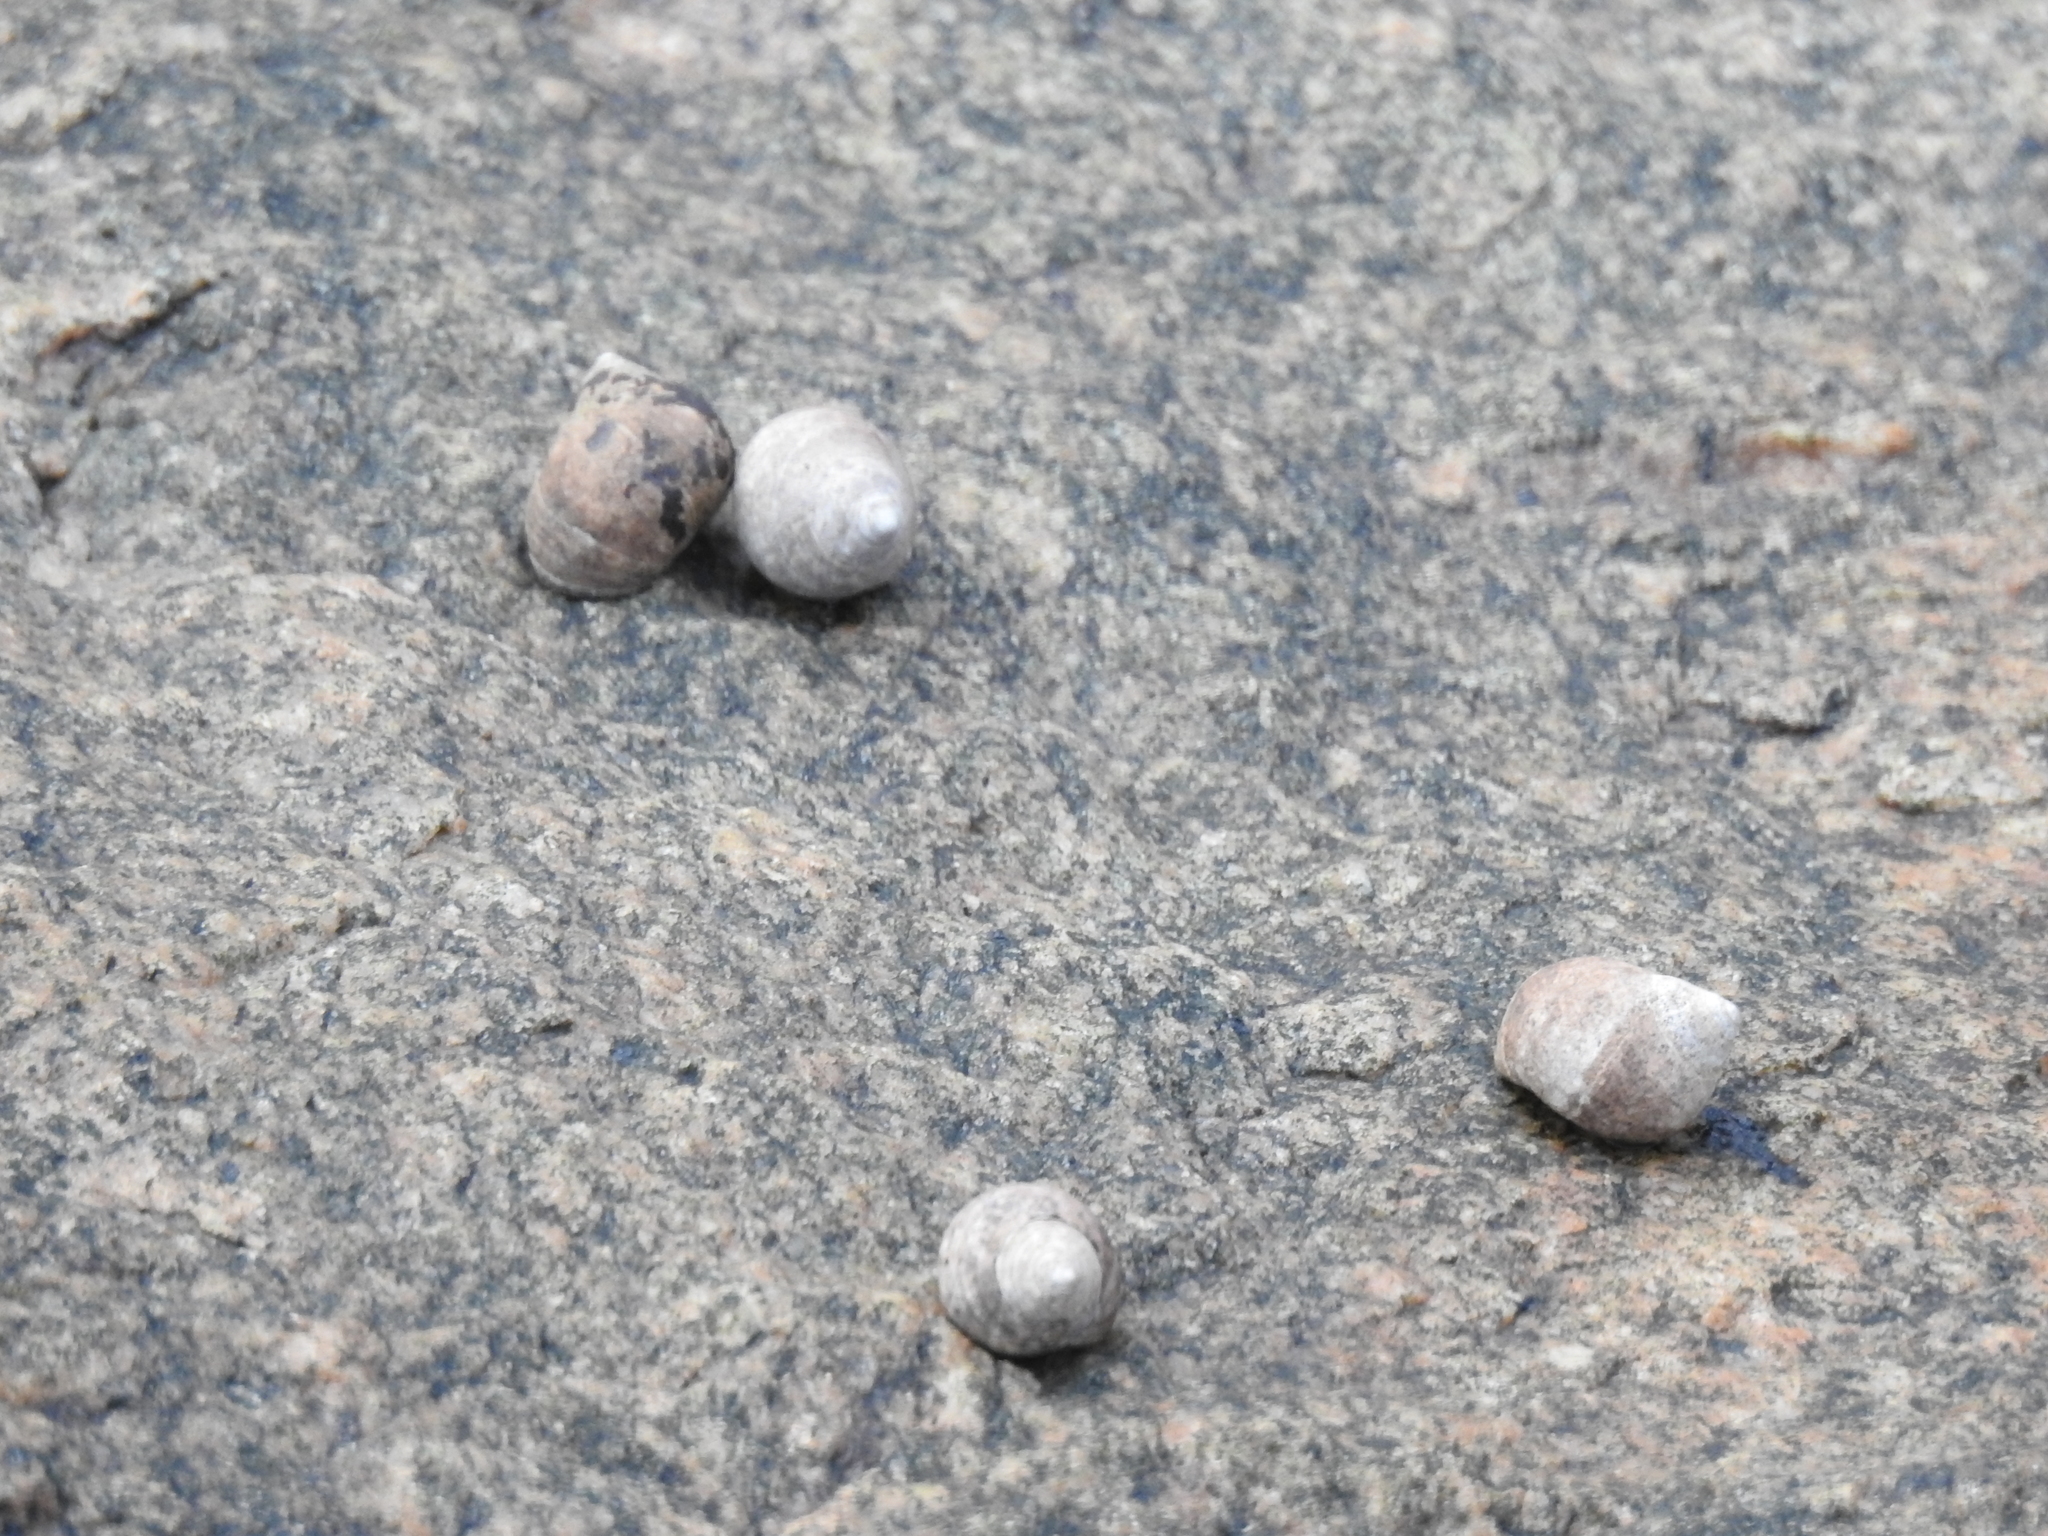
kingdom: Animalia
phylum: Mollusca
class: Gastropoda
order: Littorinimorpha
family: Littorinidae
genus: Littorina
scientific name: Littorina littorea
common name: Common periwinkle
